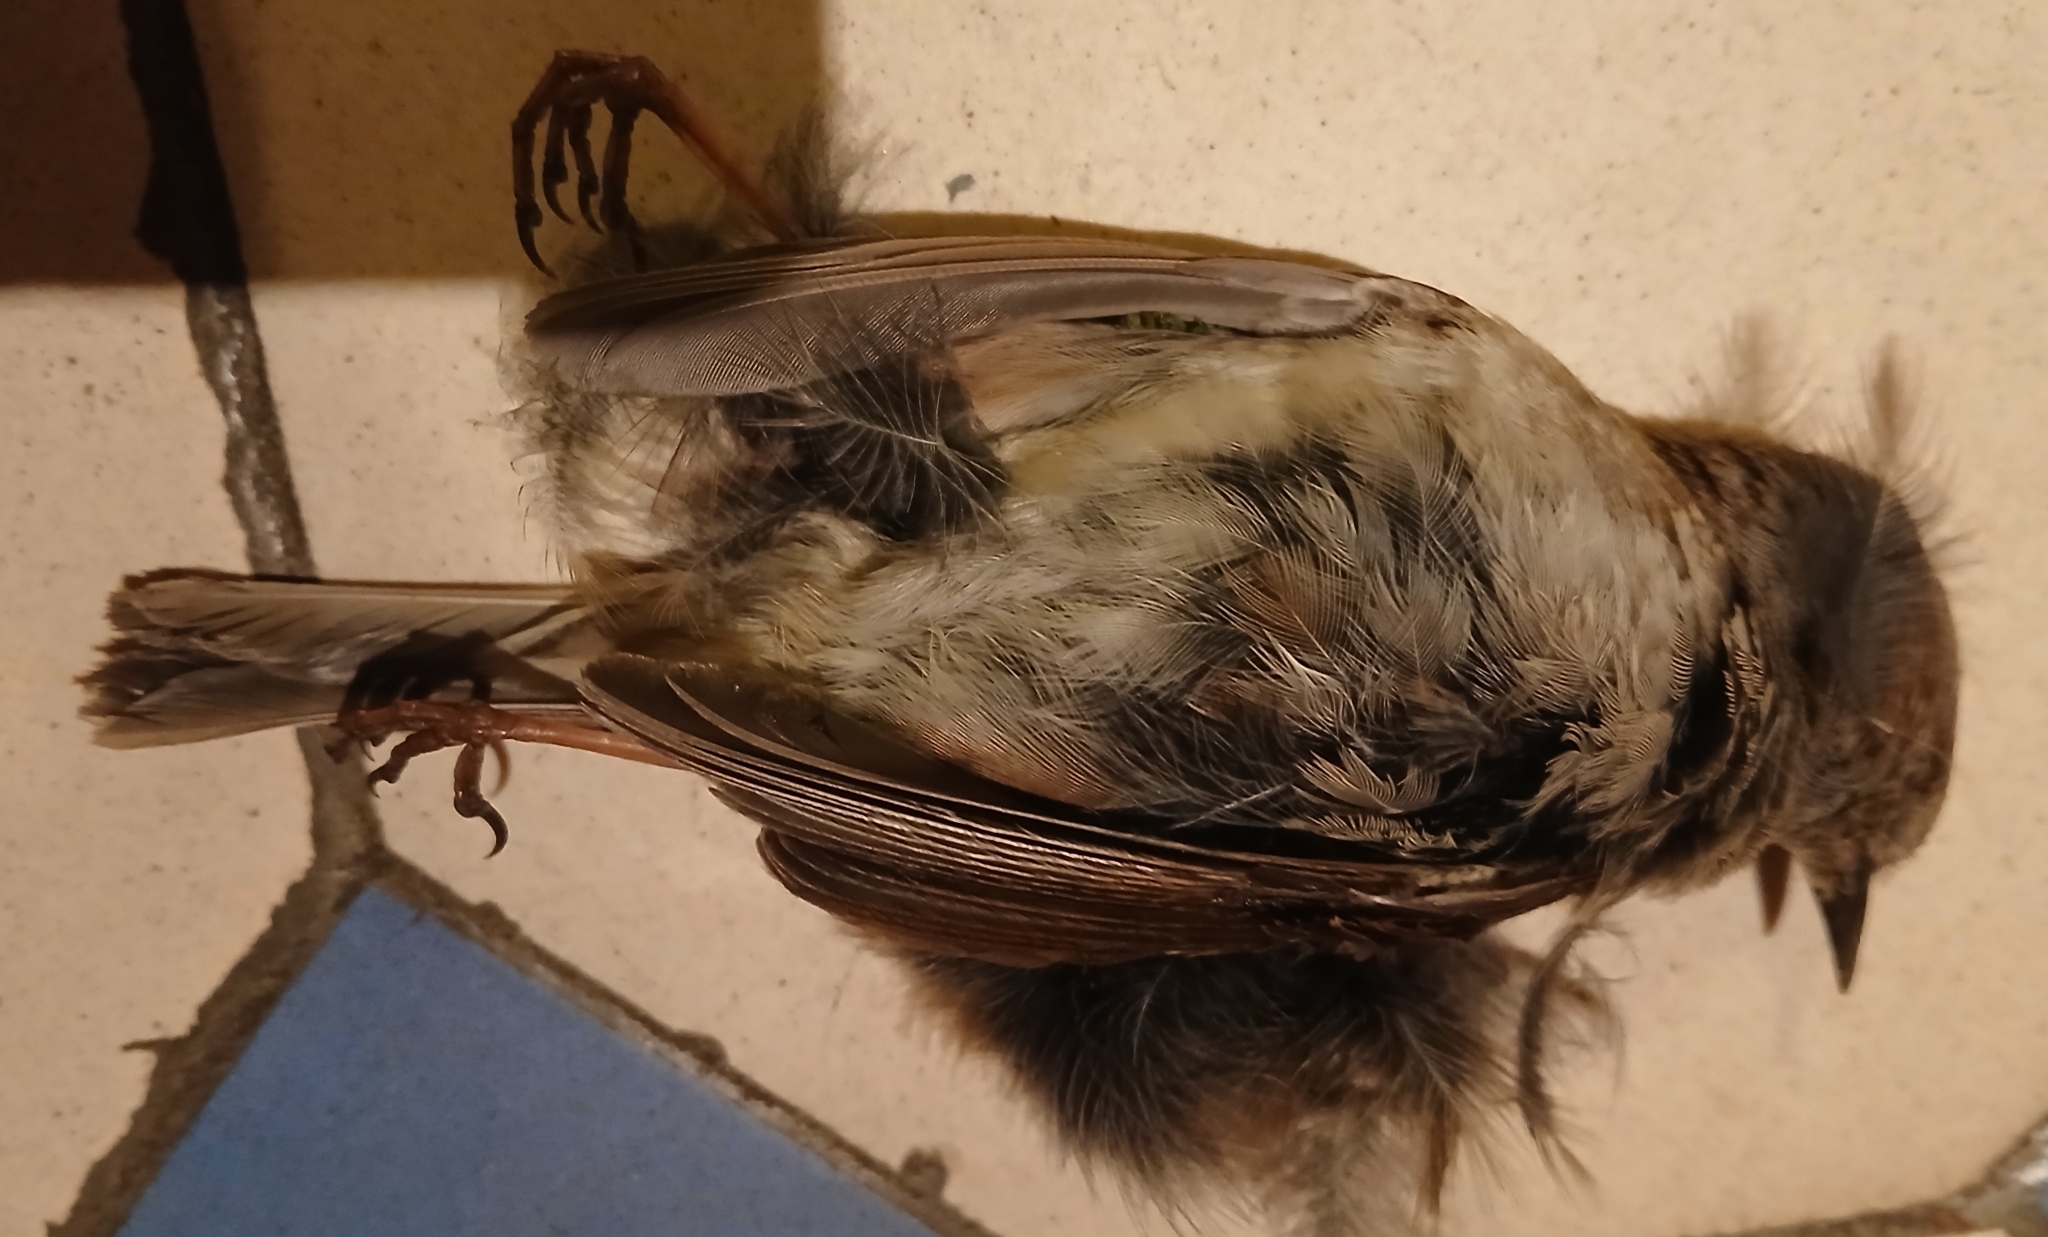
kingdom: Animalia
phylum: Chordata
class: Aves
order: Passeriformes
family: Prunellidae
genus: Prunella
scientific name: Prunella modularis
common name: Dunnock
